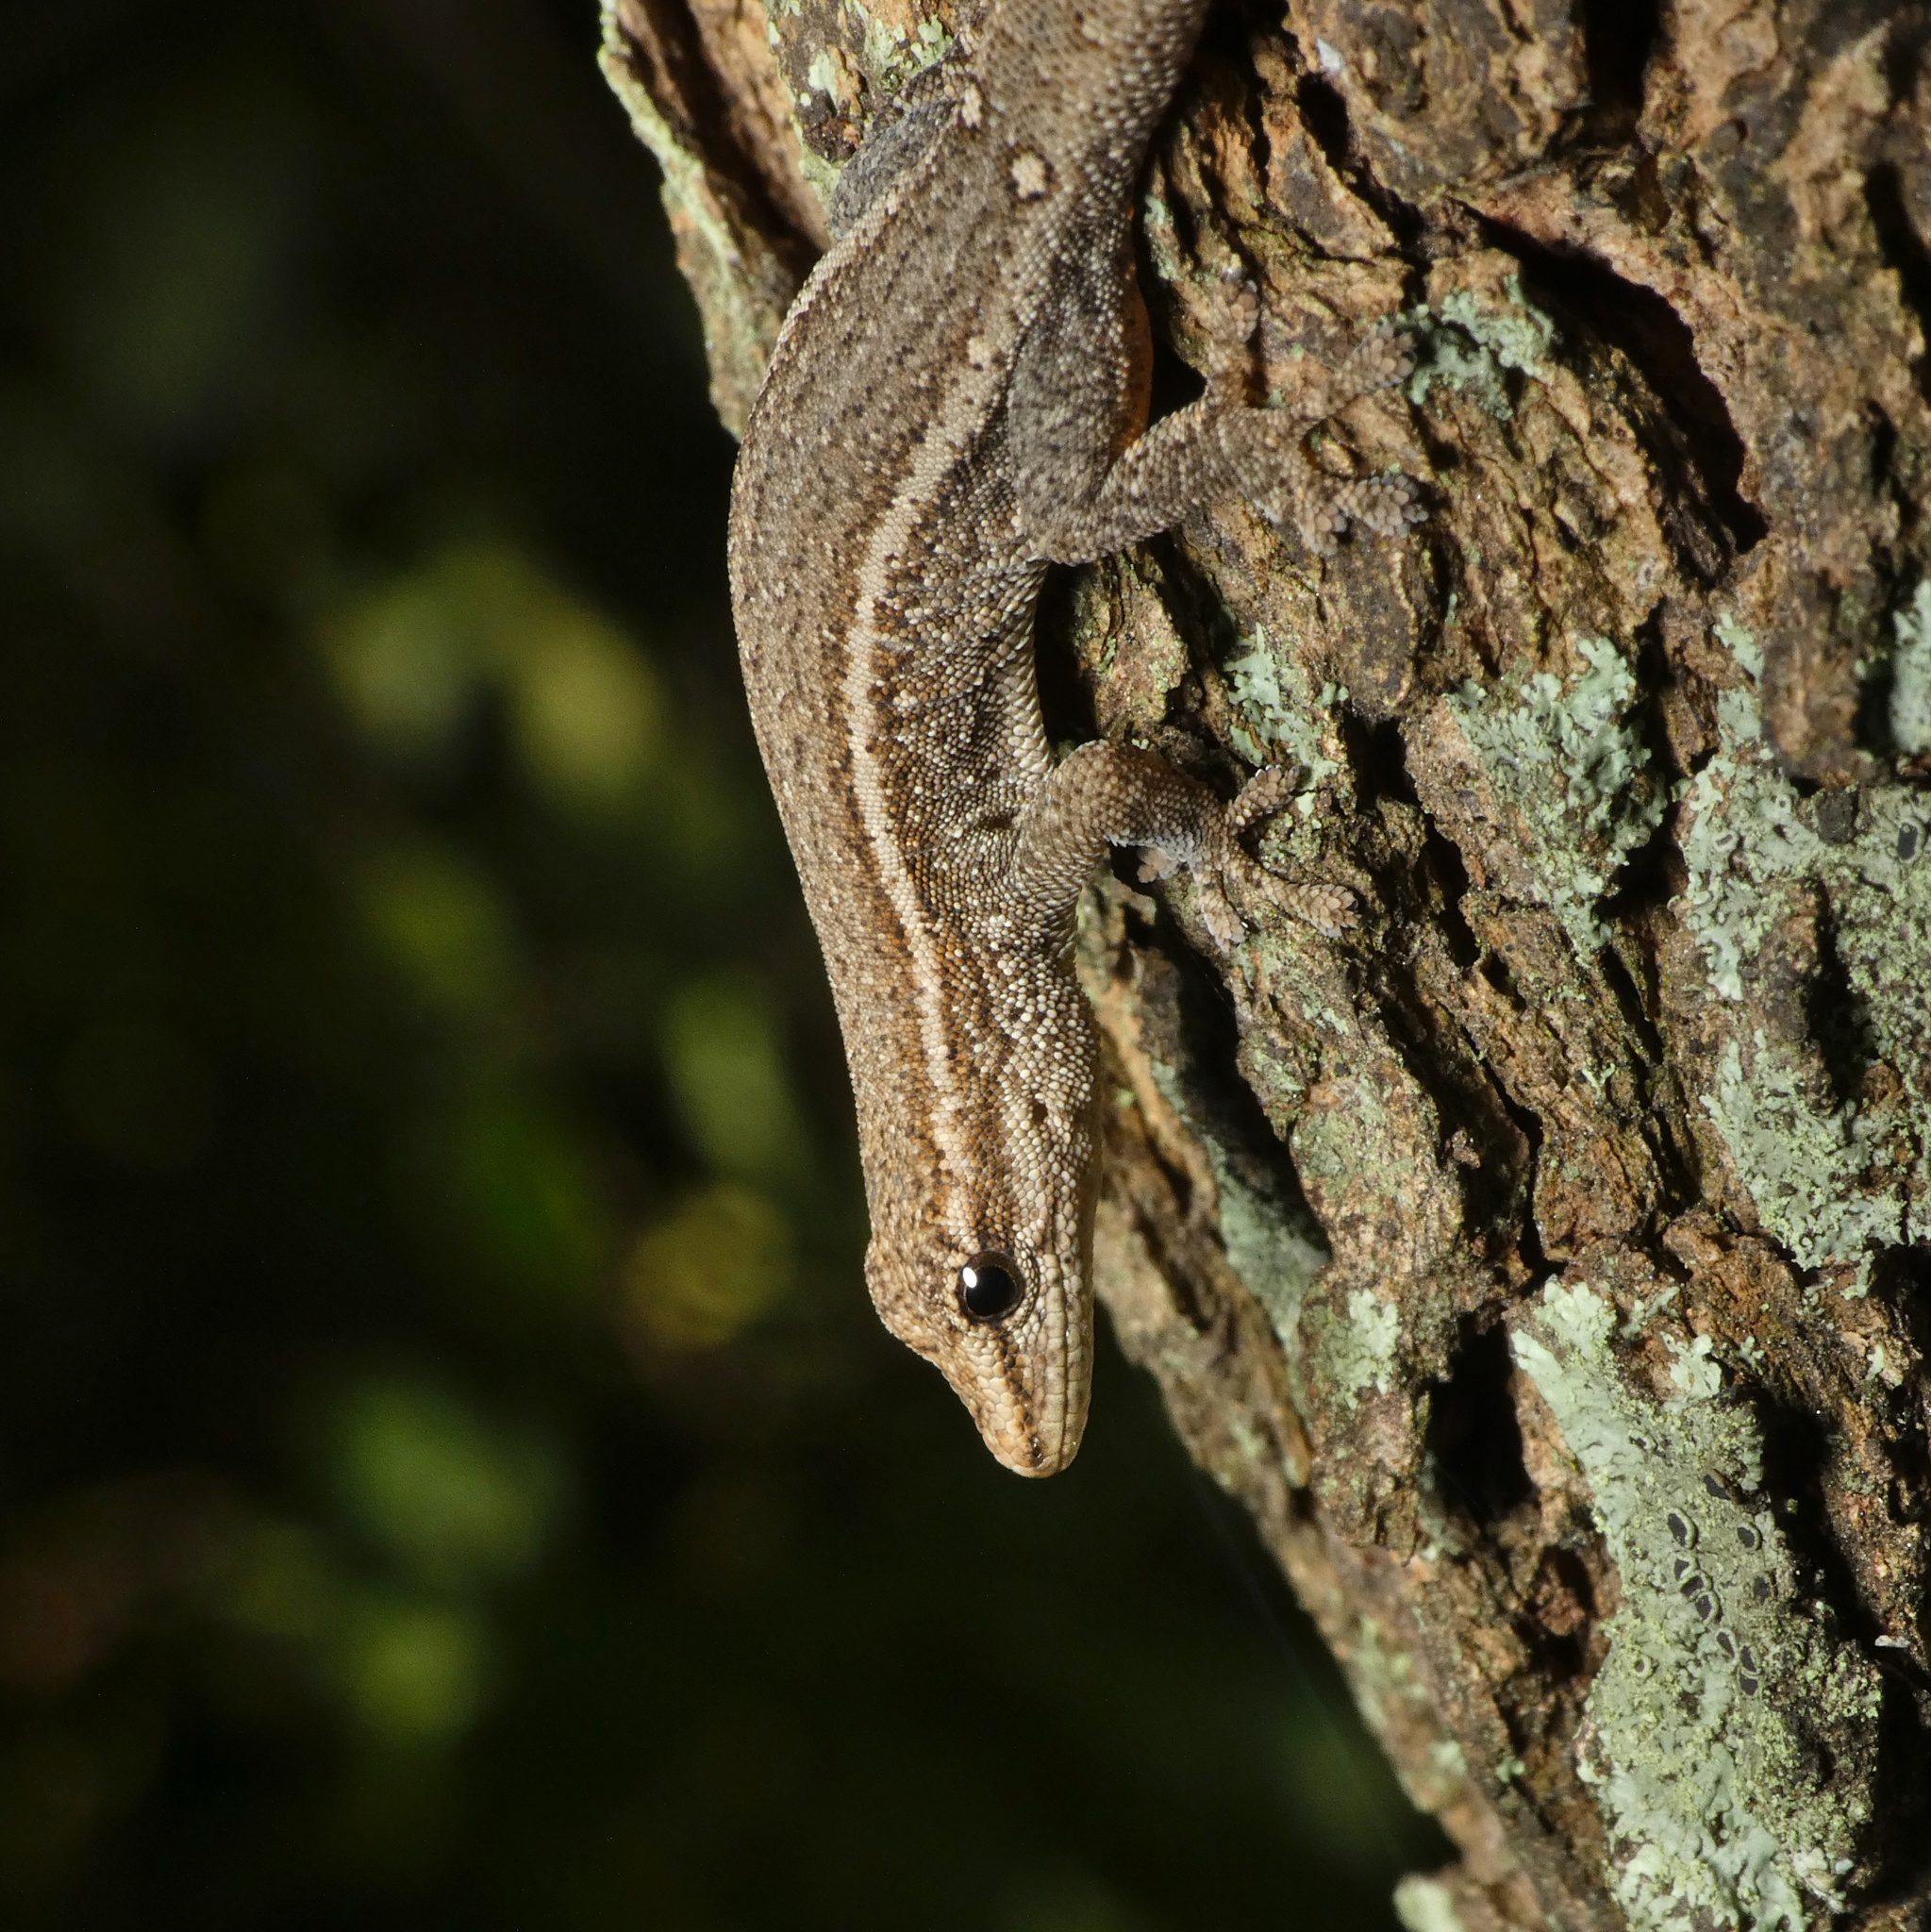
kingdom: Animalia
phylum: Chordata
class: Squamata
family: Gekkonidae
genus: Lygodactylus
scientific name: Lygodactylus capensis
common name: Cape dwarf gecko
